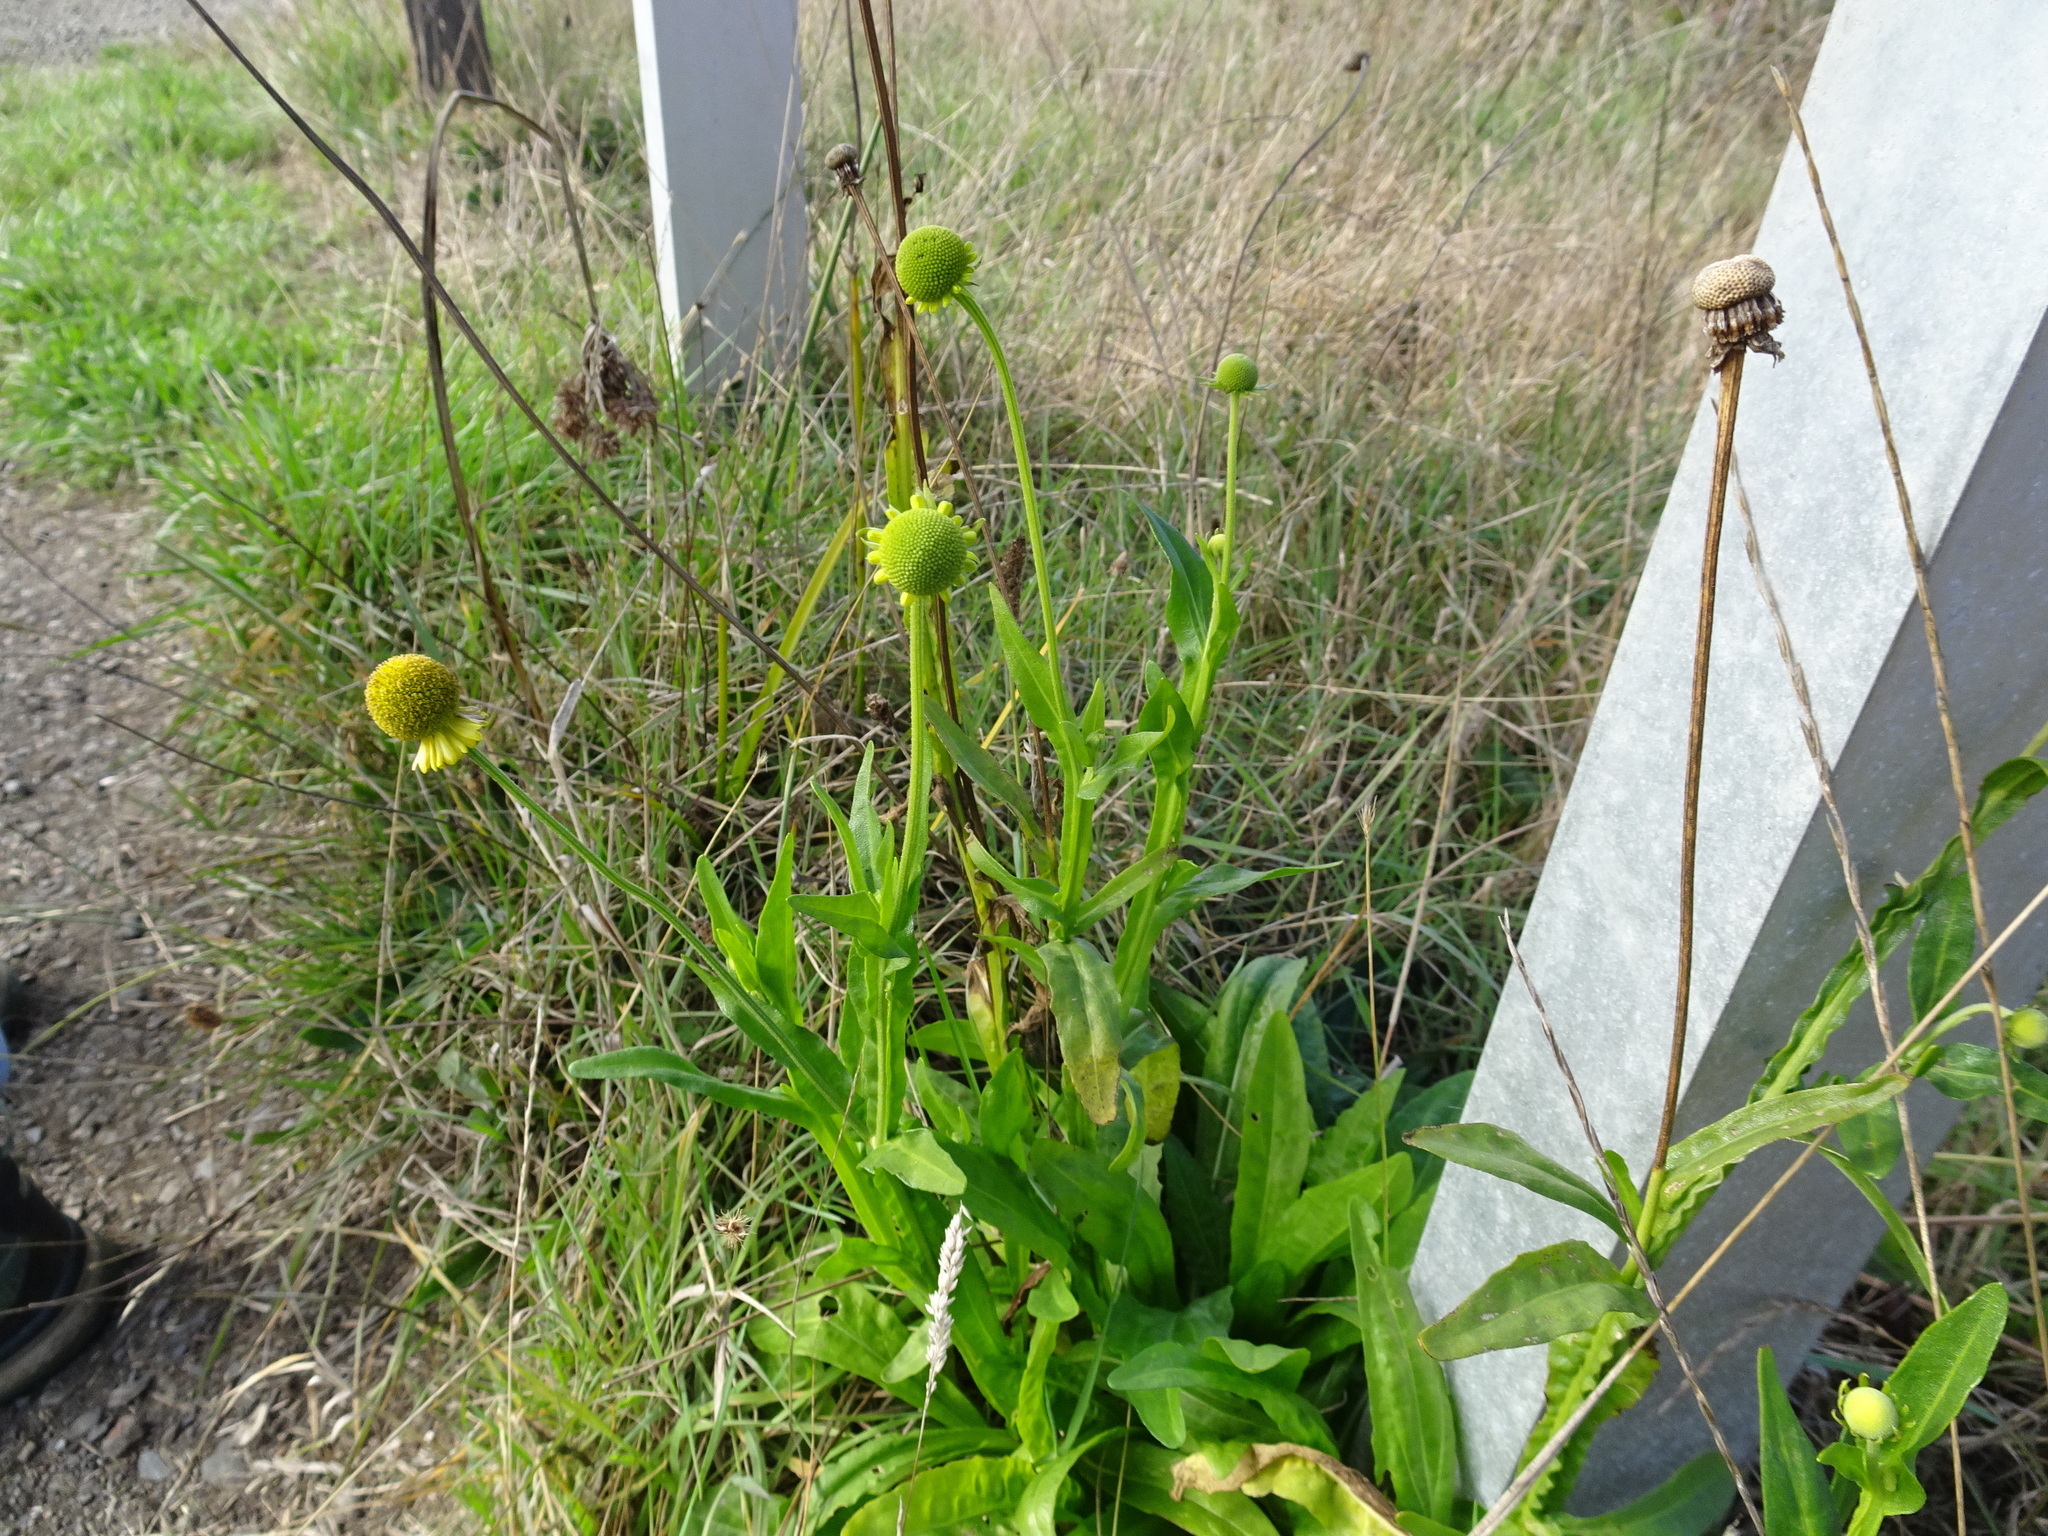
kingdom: Plantae
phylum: Tracheophyta
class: Magnoliopsida
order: Asterales
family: Asteraceae
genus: Helenium
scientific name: Helenium puberulum
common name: Sneezewort
